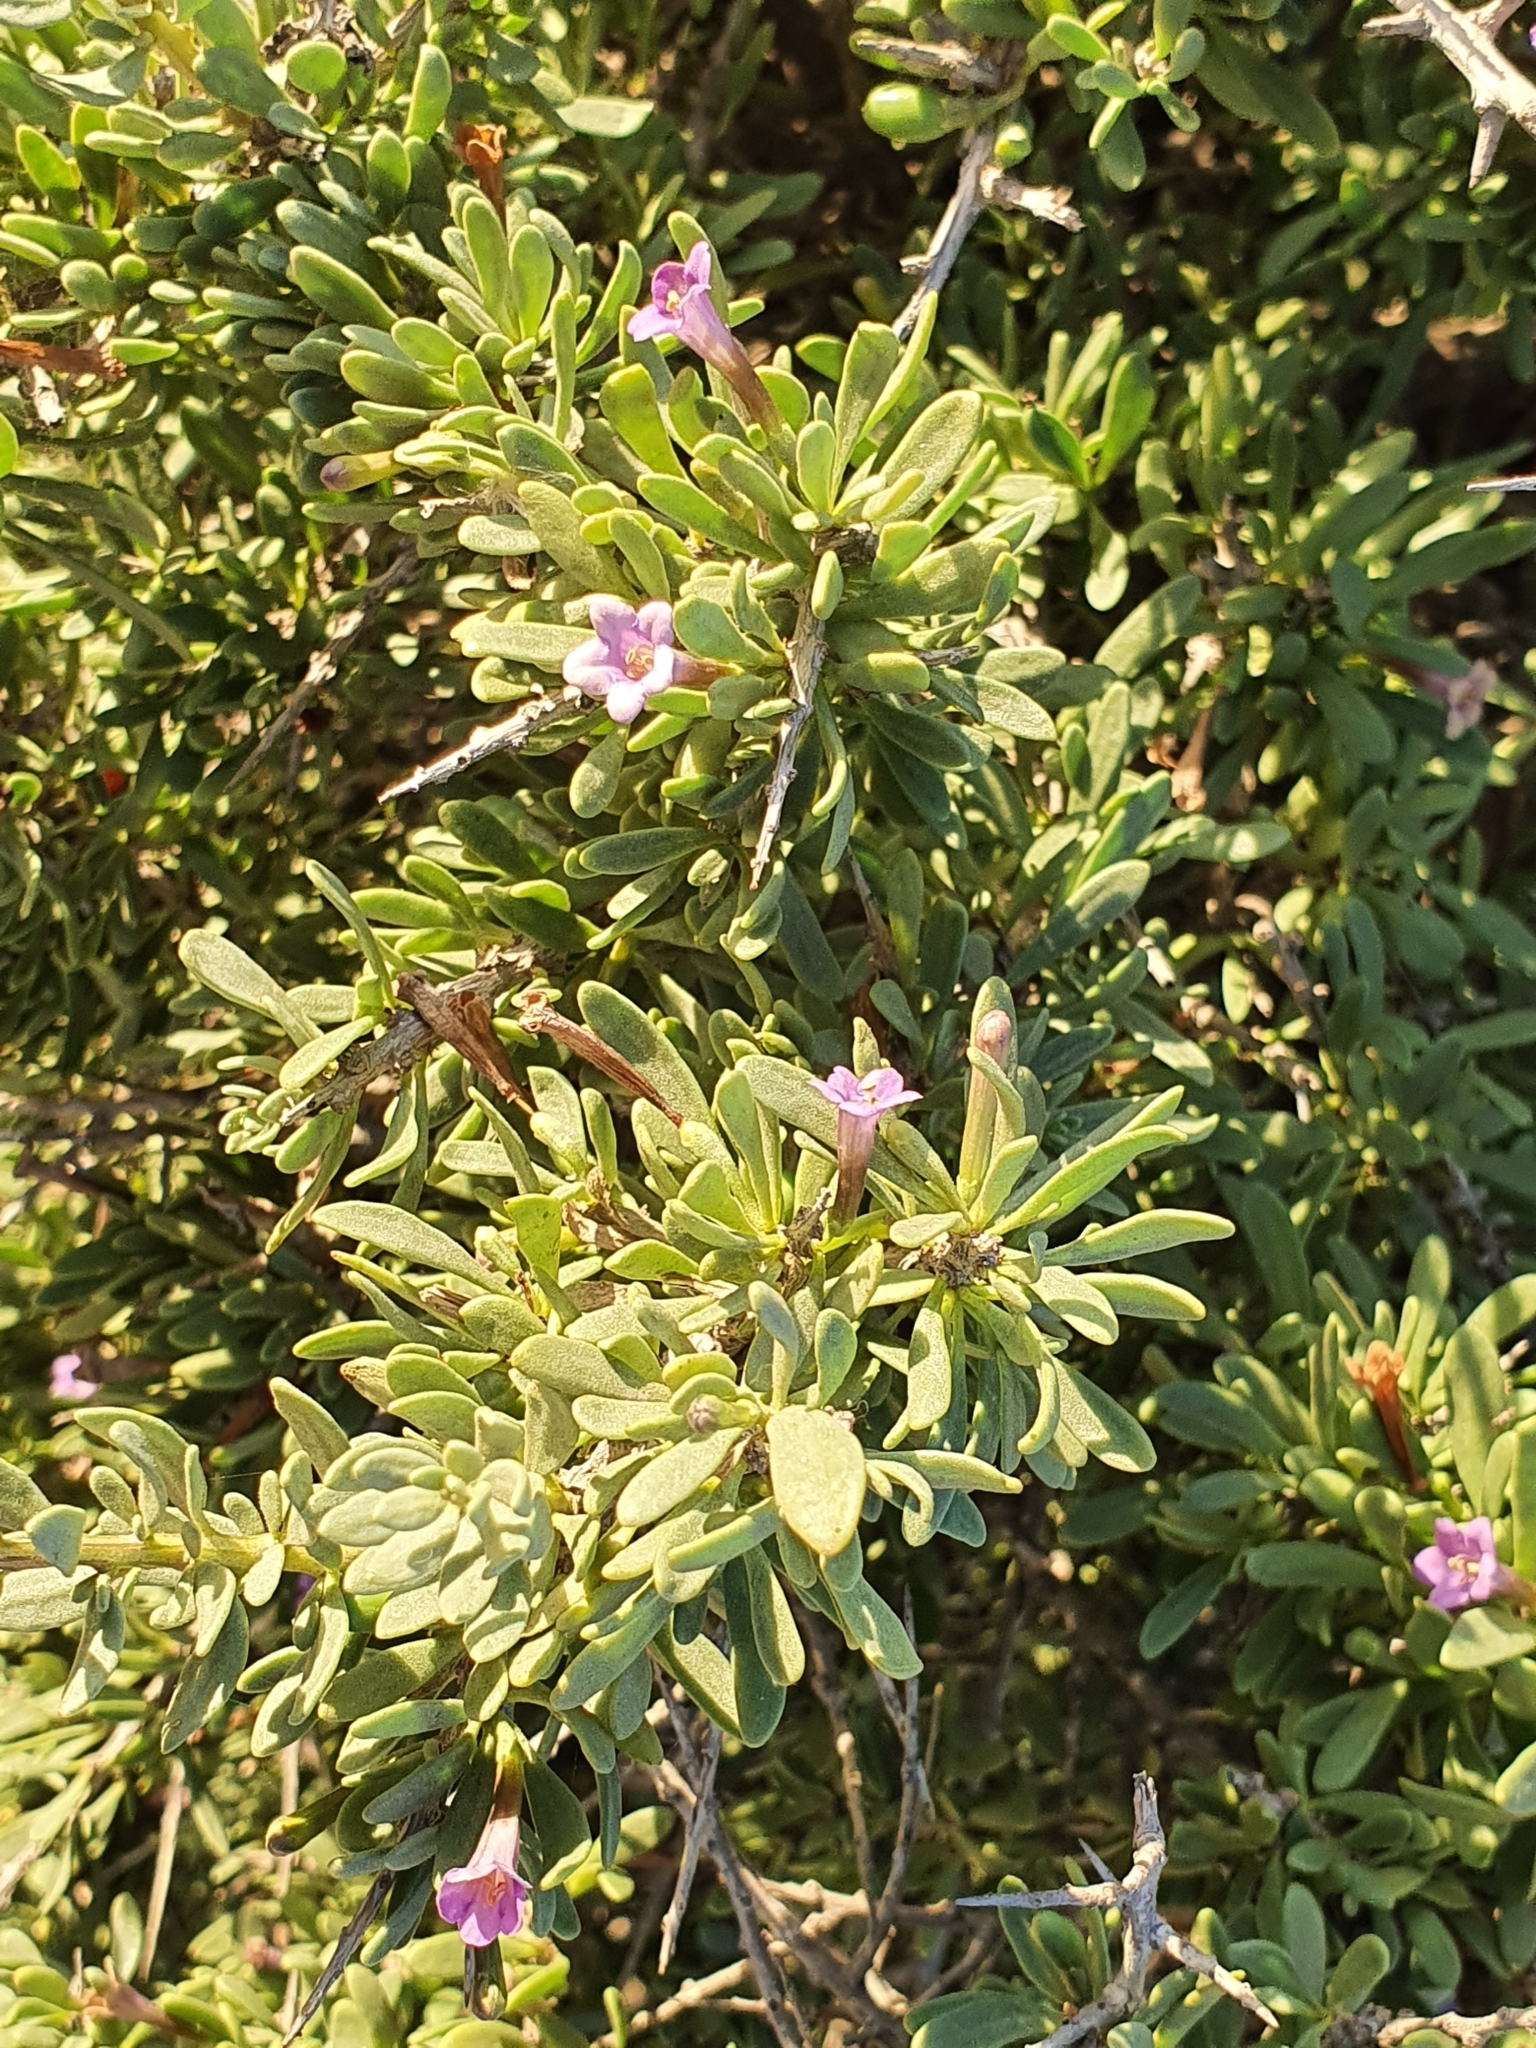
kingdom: Plantae
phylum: Tracheophyta
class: Magnoliopsida
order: Solanales
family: Solanaceae
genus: Lycium
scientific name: Lycium intricatum
